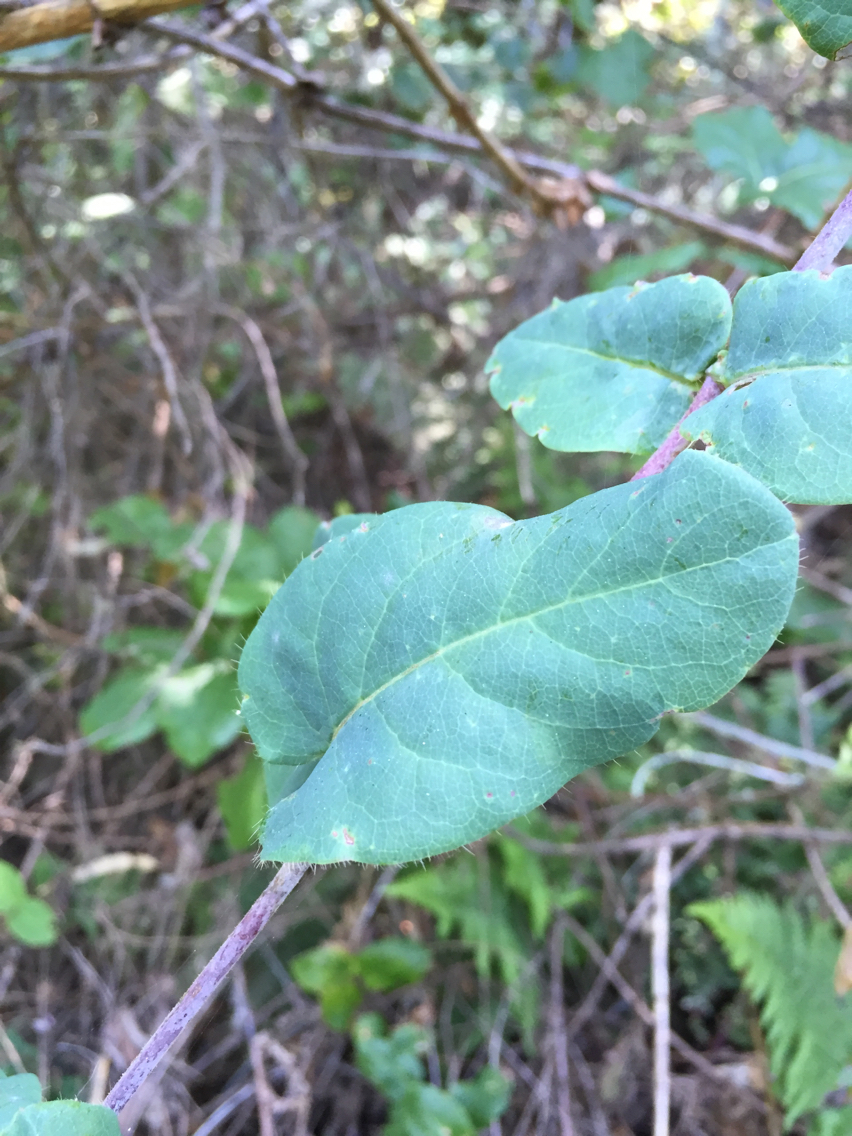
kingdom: Plantae
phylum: Tracheophyta
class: Magnoliopsida
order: Dipsacales
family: Caprifoliaceae
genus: Lonicera
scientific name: Lonicera hispidula
